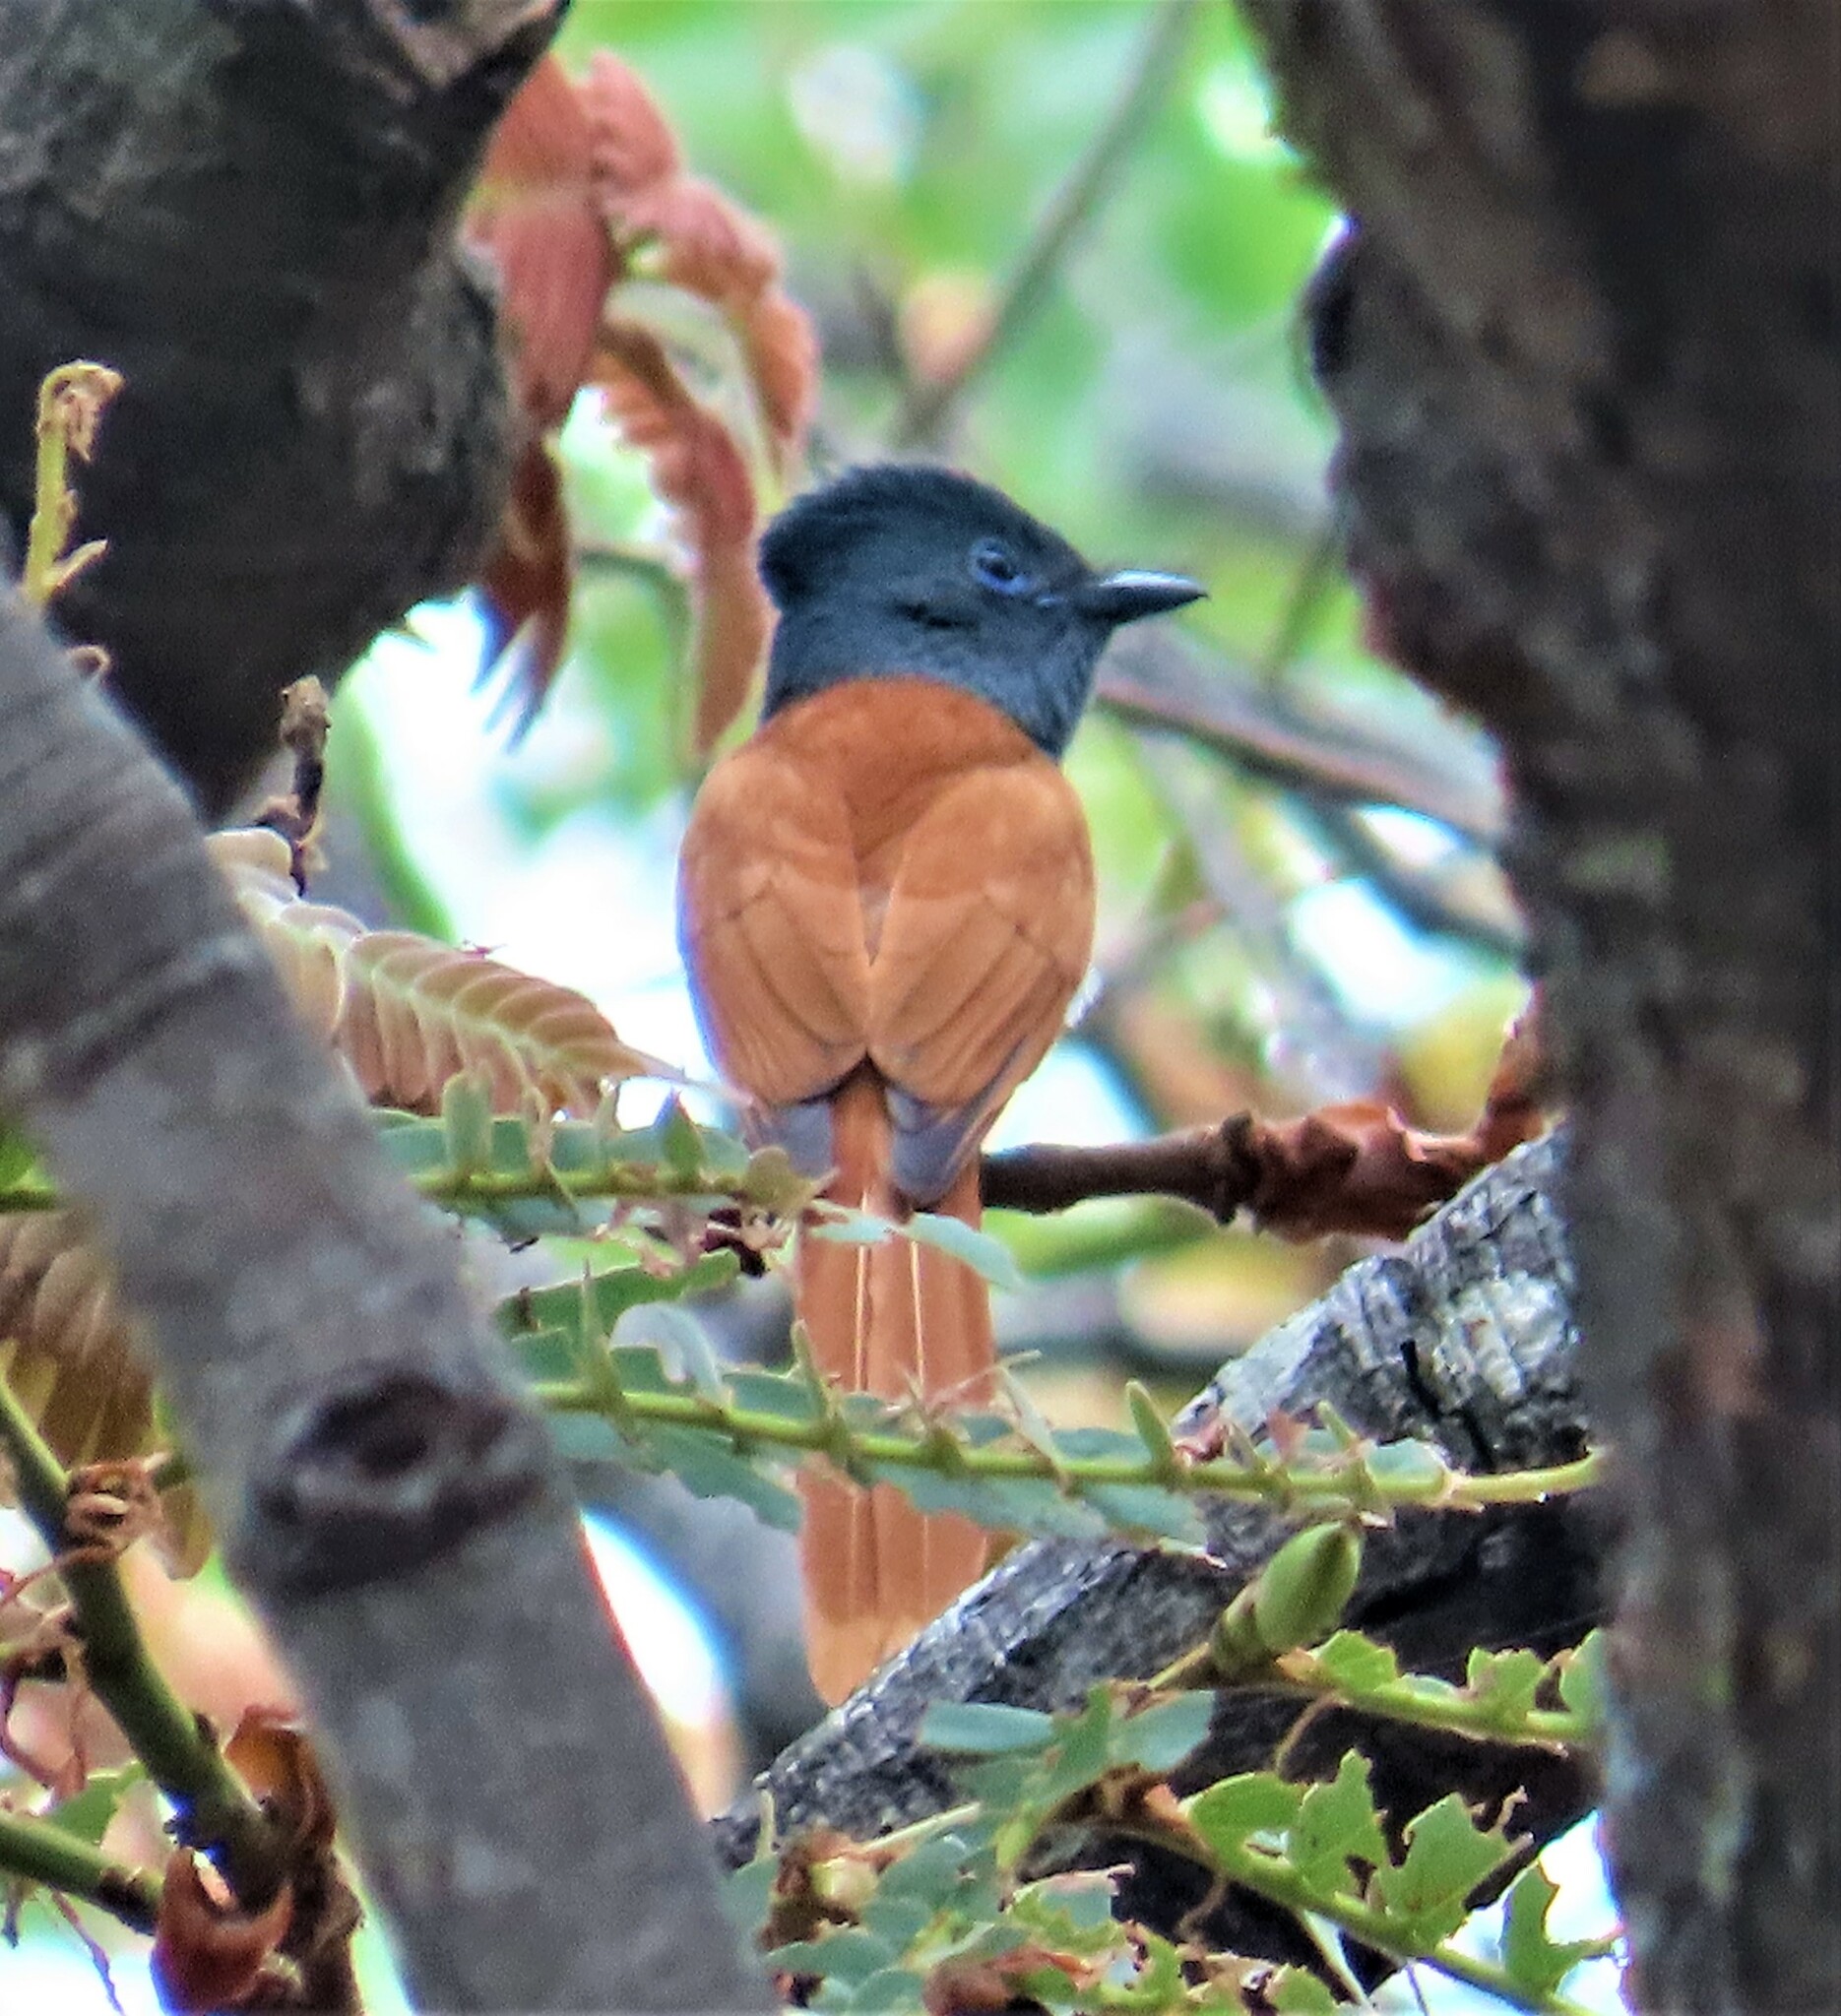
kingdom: Animalia
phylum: Chordata
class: Aves
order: Passeriformes
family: Monarchidae
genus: Terpsiphone
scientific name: Terpsiphone viridis
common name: African paradise flycatcher
